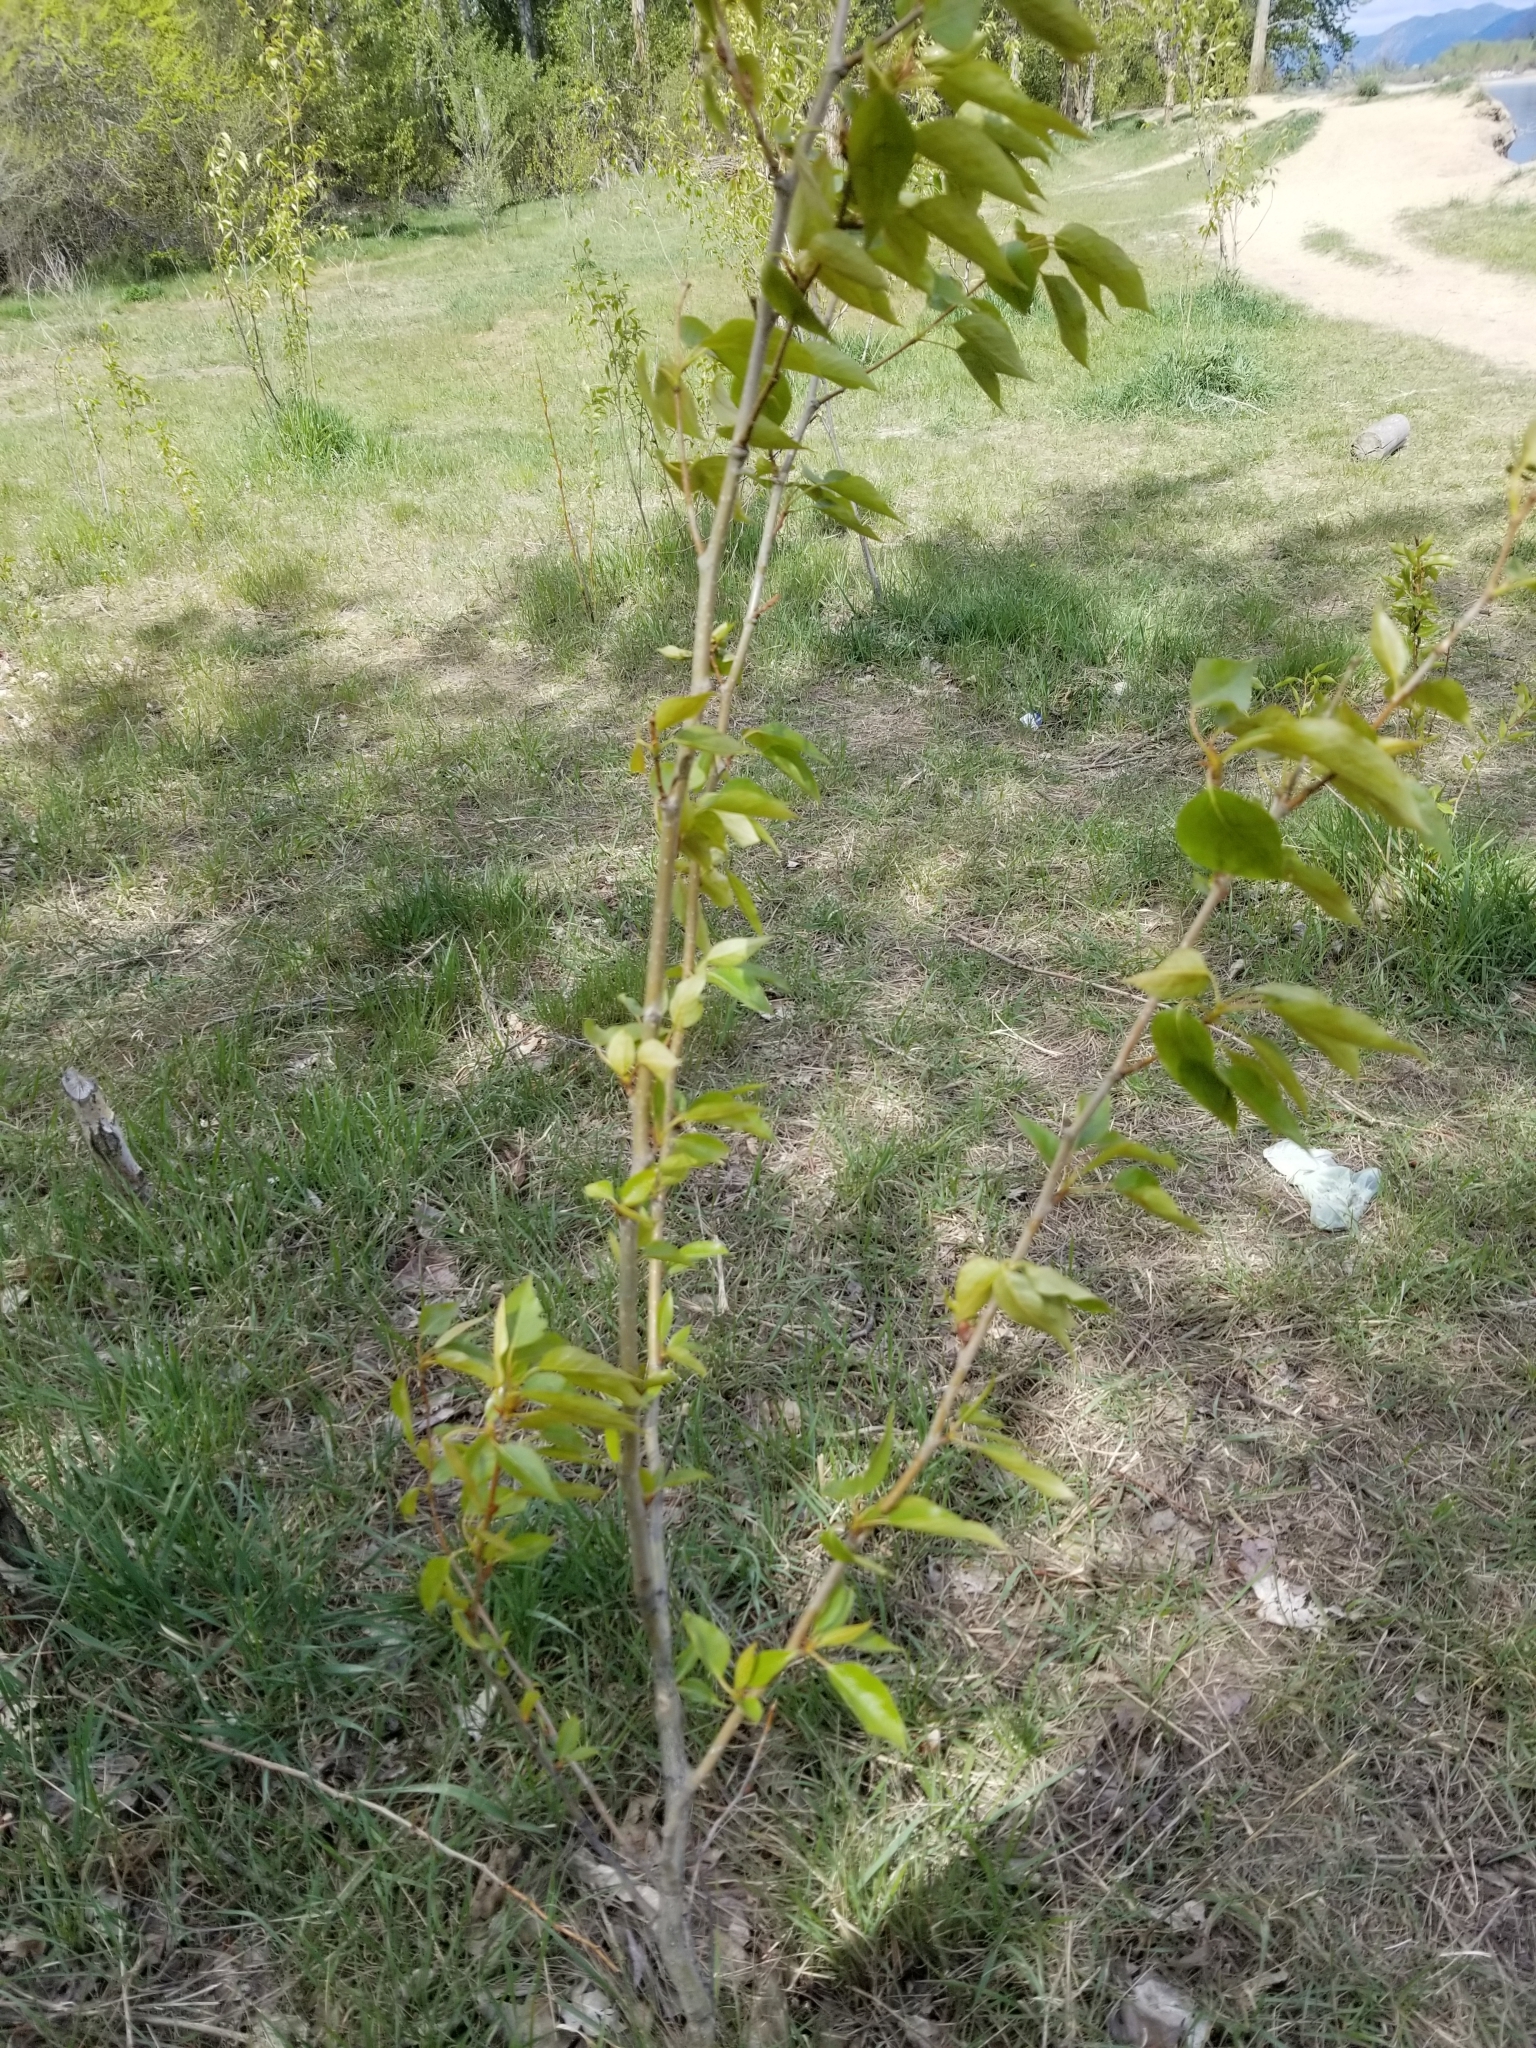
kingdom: Plantae
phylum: Tracheophyta
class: Magnoliopsida
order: Malpighiales
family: Salicaceae
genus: Populus
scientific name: Populus trichocarpa
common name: Black cottonwood
